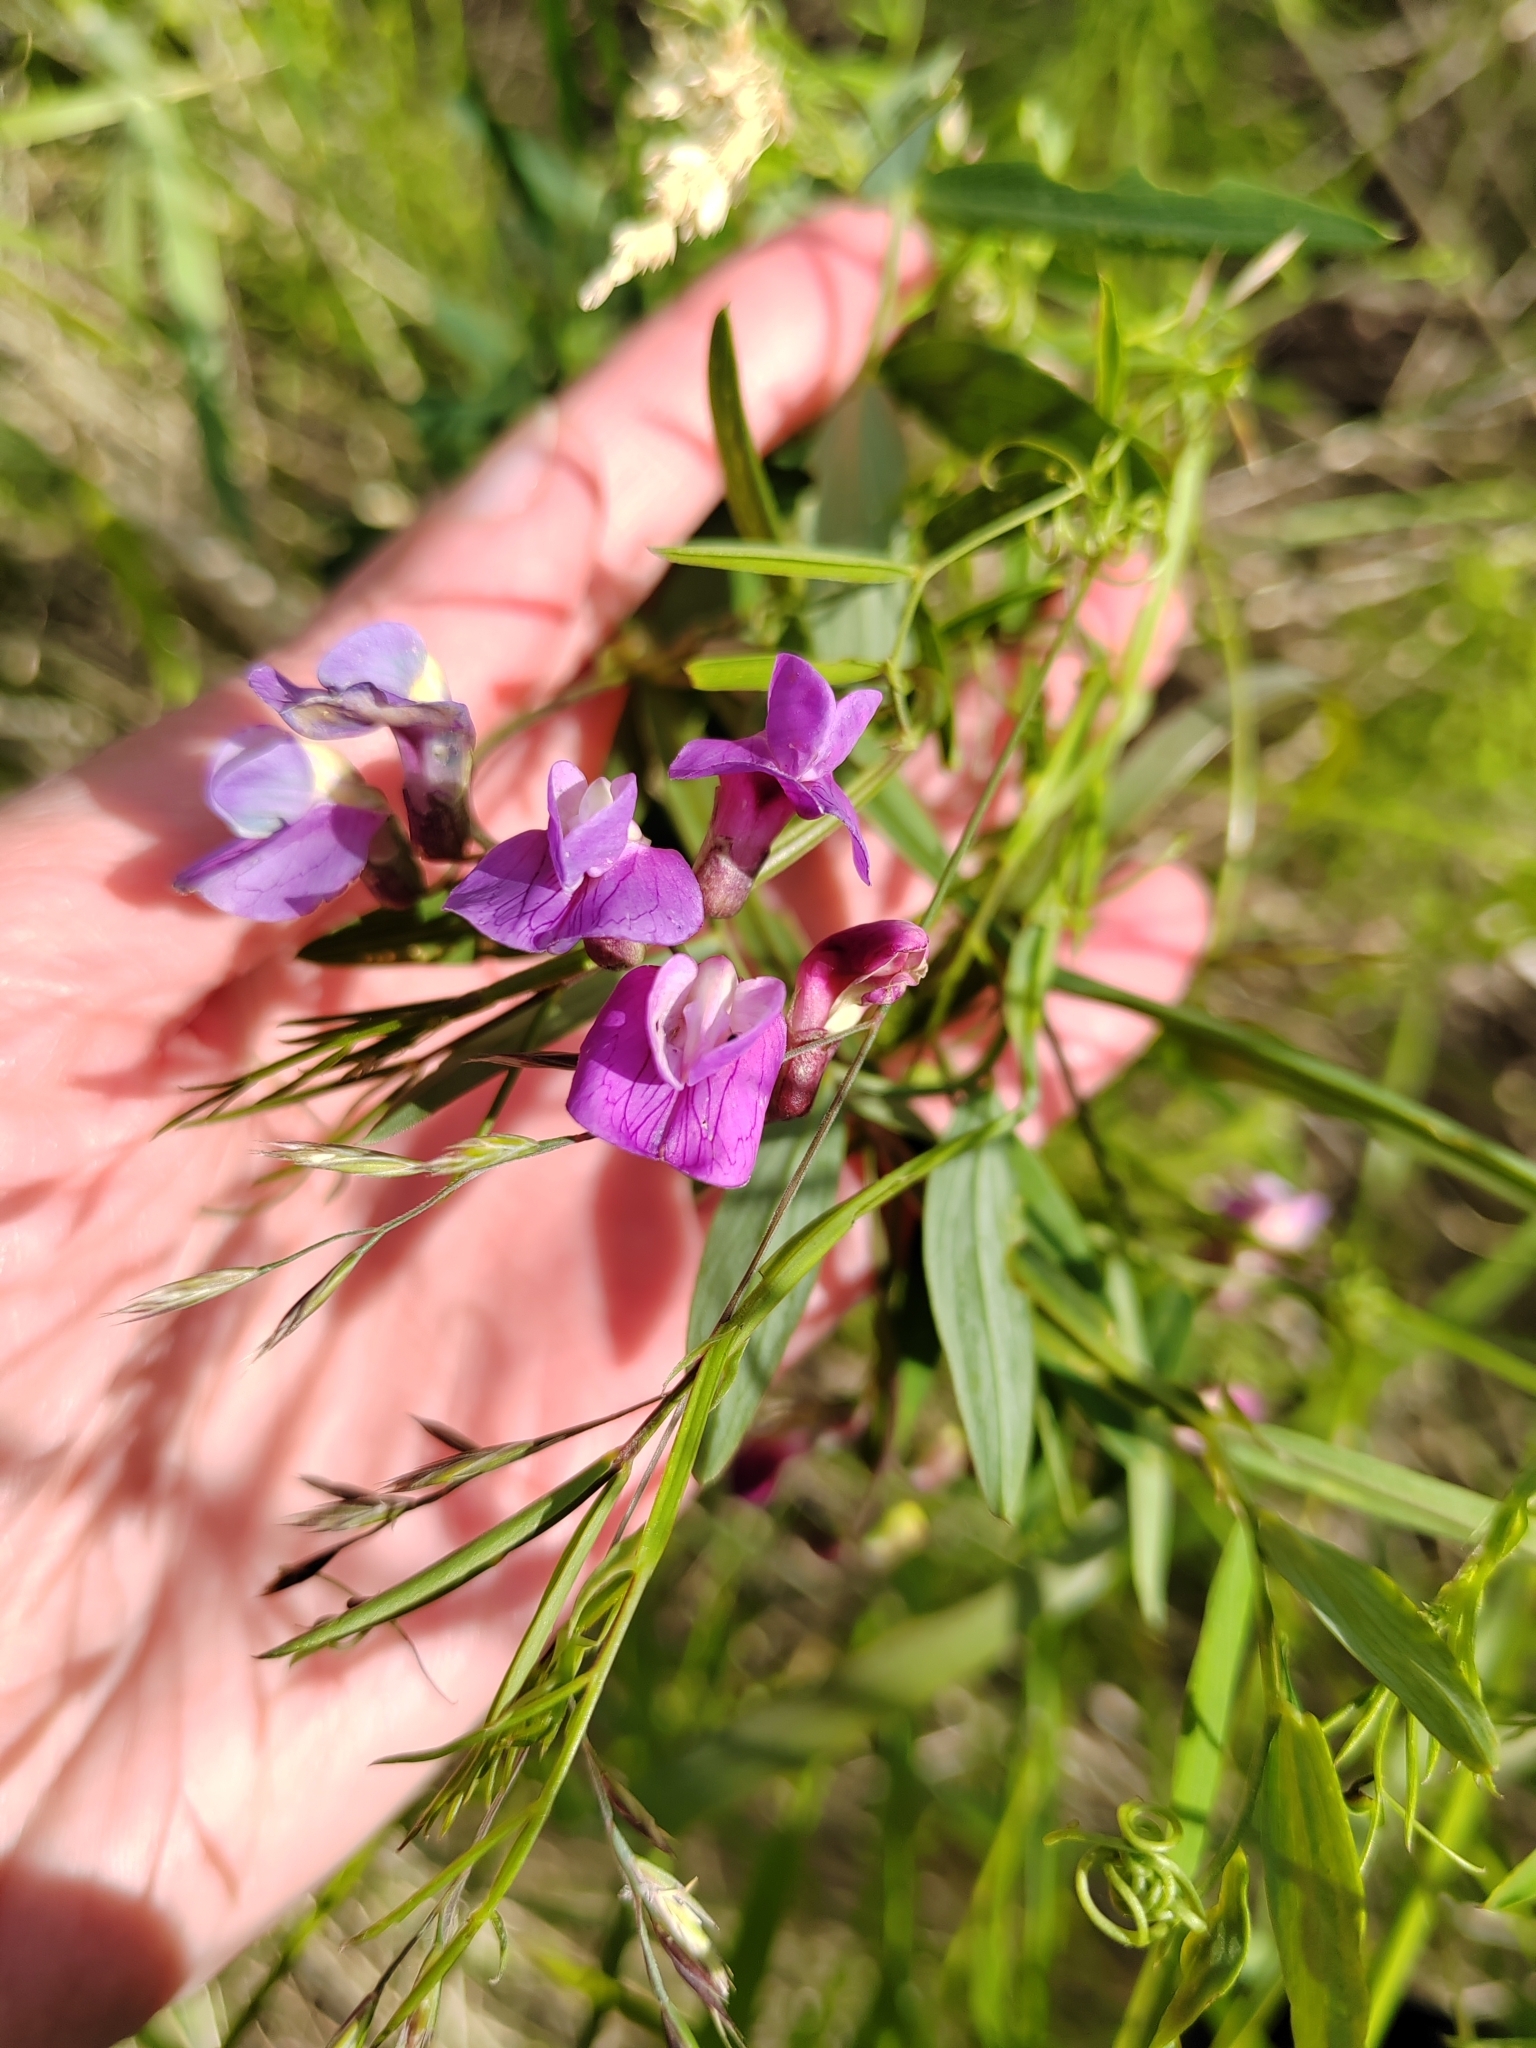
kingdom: Plantae
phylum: Tracheophyta
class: Magnoliopsida
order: Fabales
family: Fabaceae
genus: Lathyrus
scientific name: Lathyrus palustris
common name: Marsh pea
